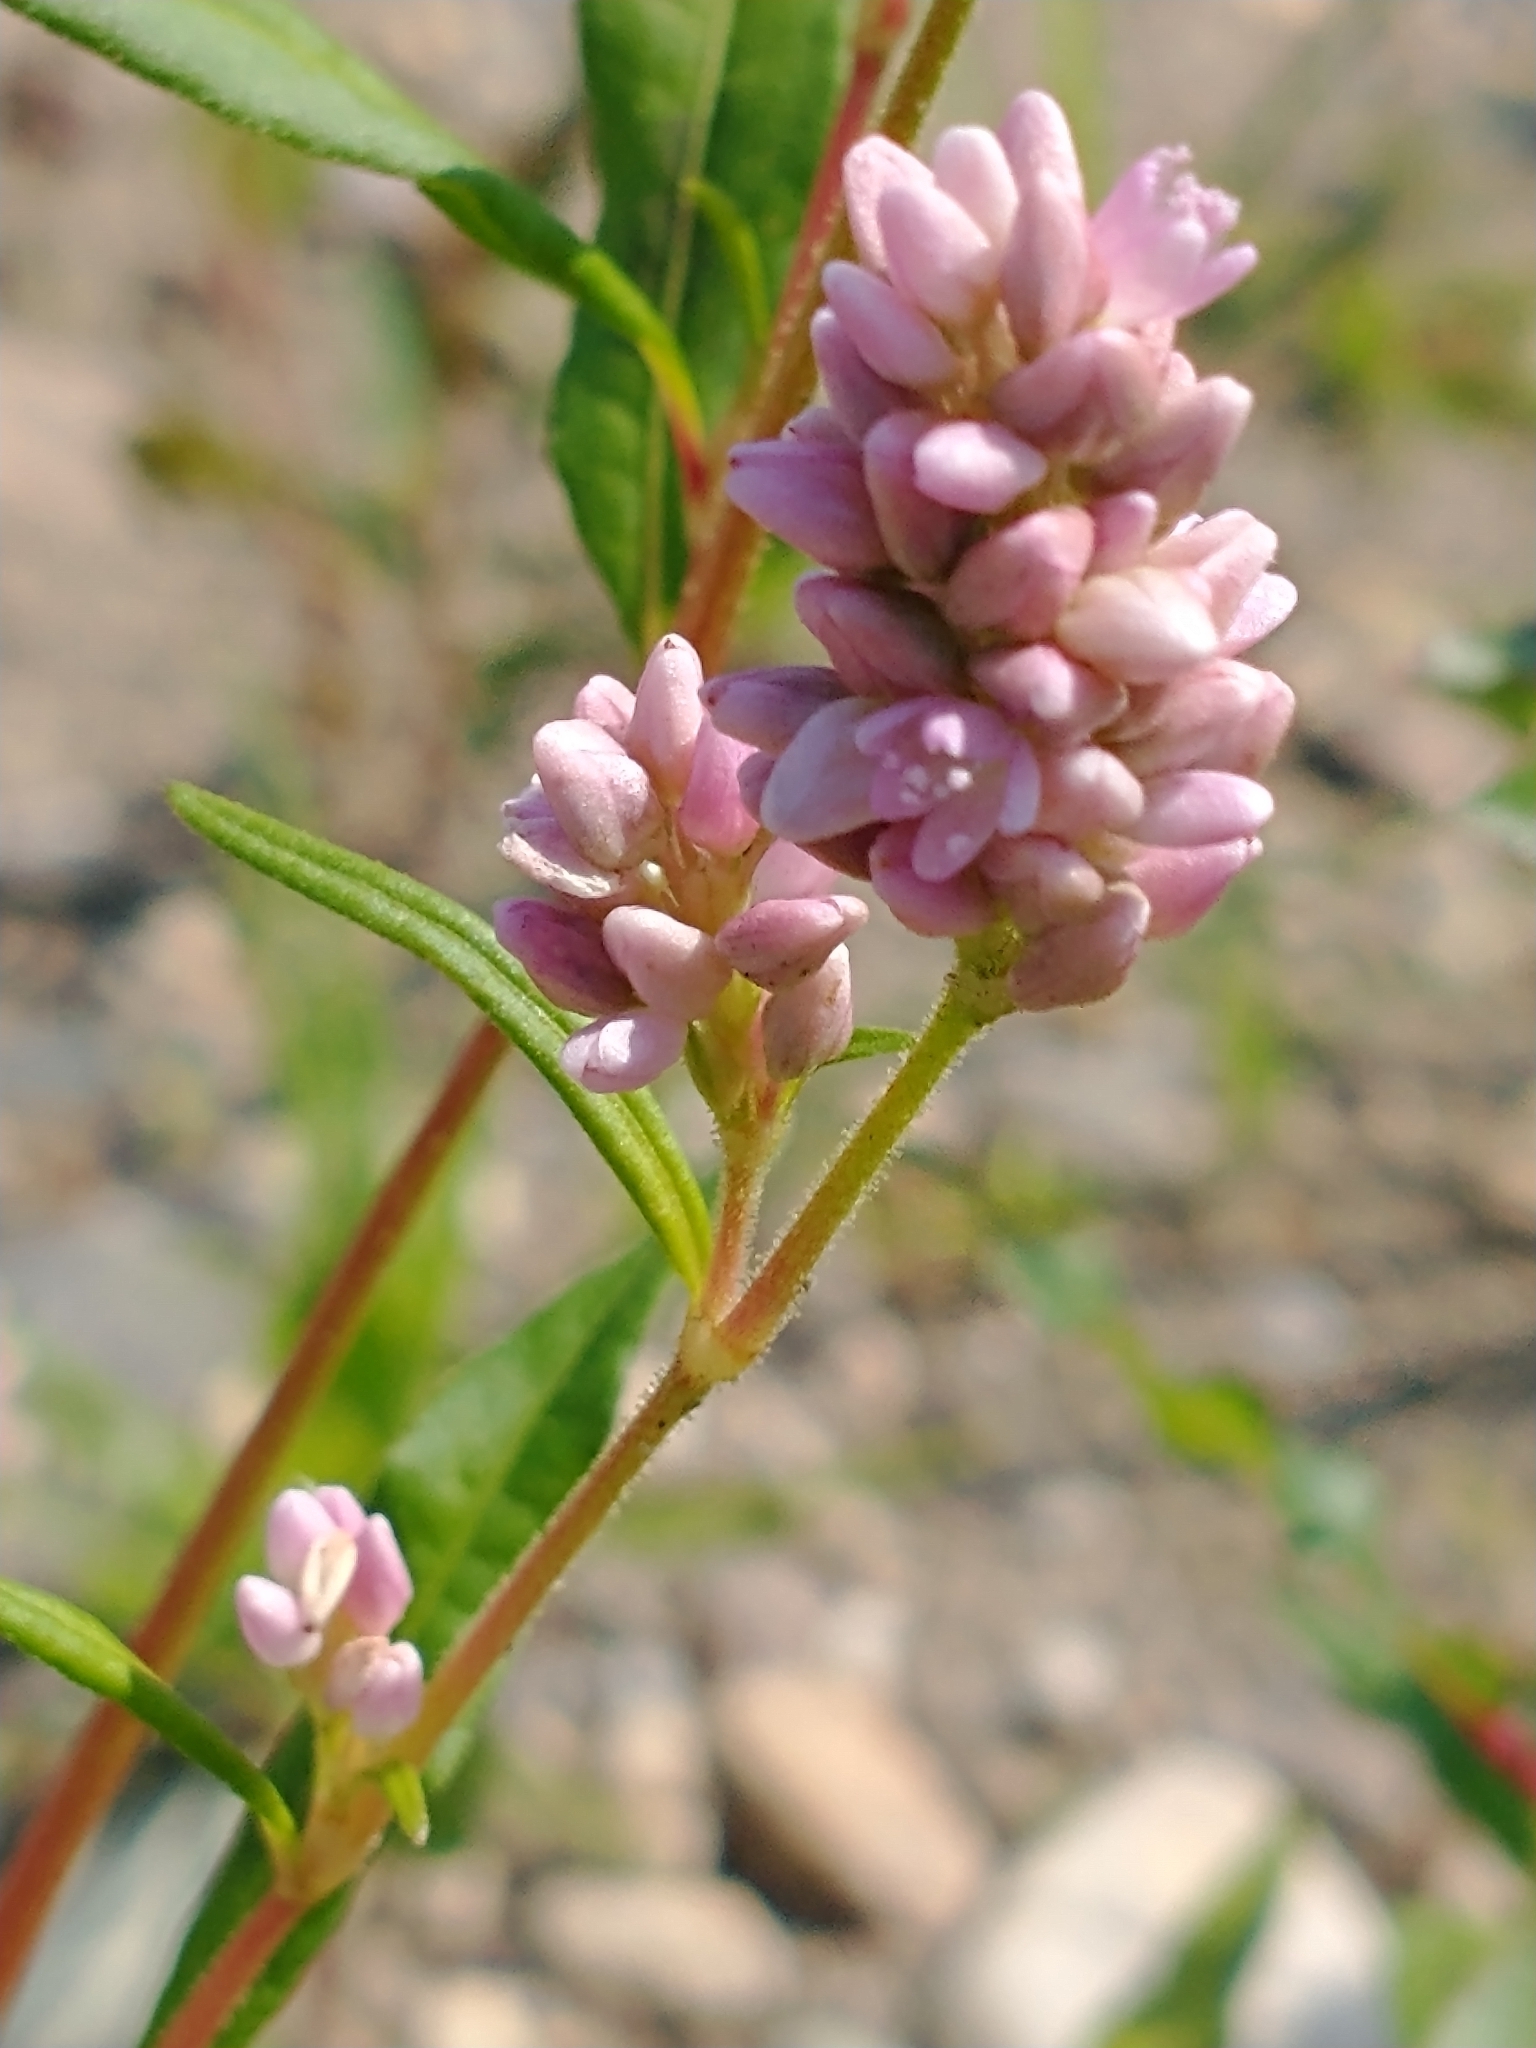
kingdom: Plantae
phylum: Tracheophyta
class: Magnoliopsida
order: Caryophyllales
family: Polygonaceae
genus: Persicaria
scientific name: Persicaria pensylvanica
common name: Pinkweed
